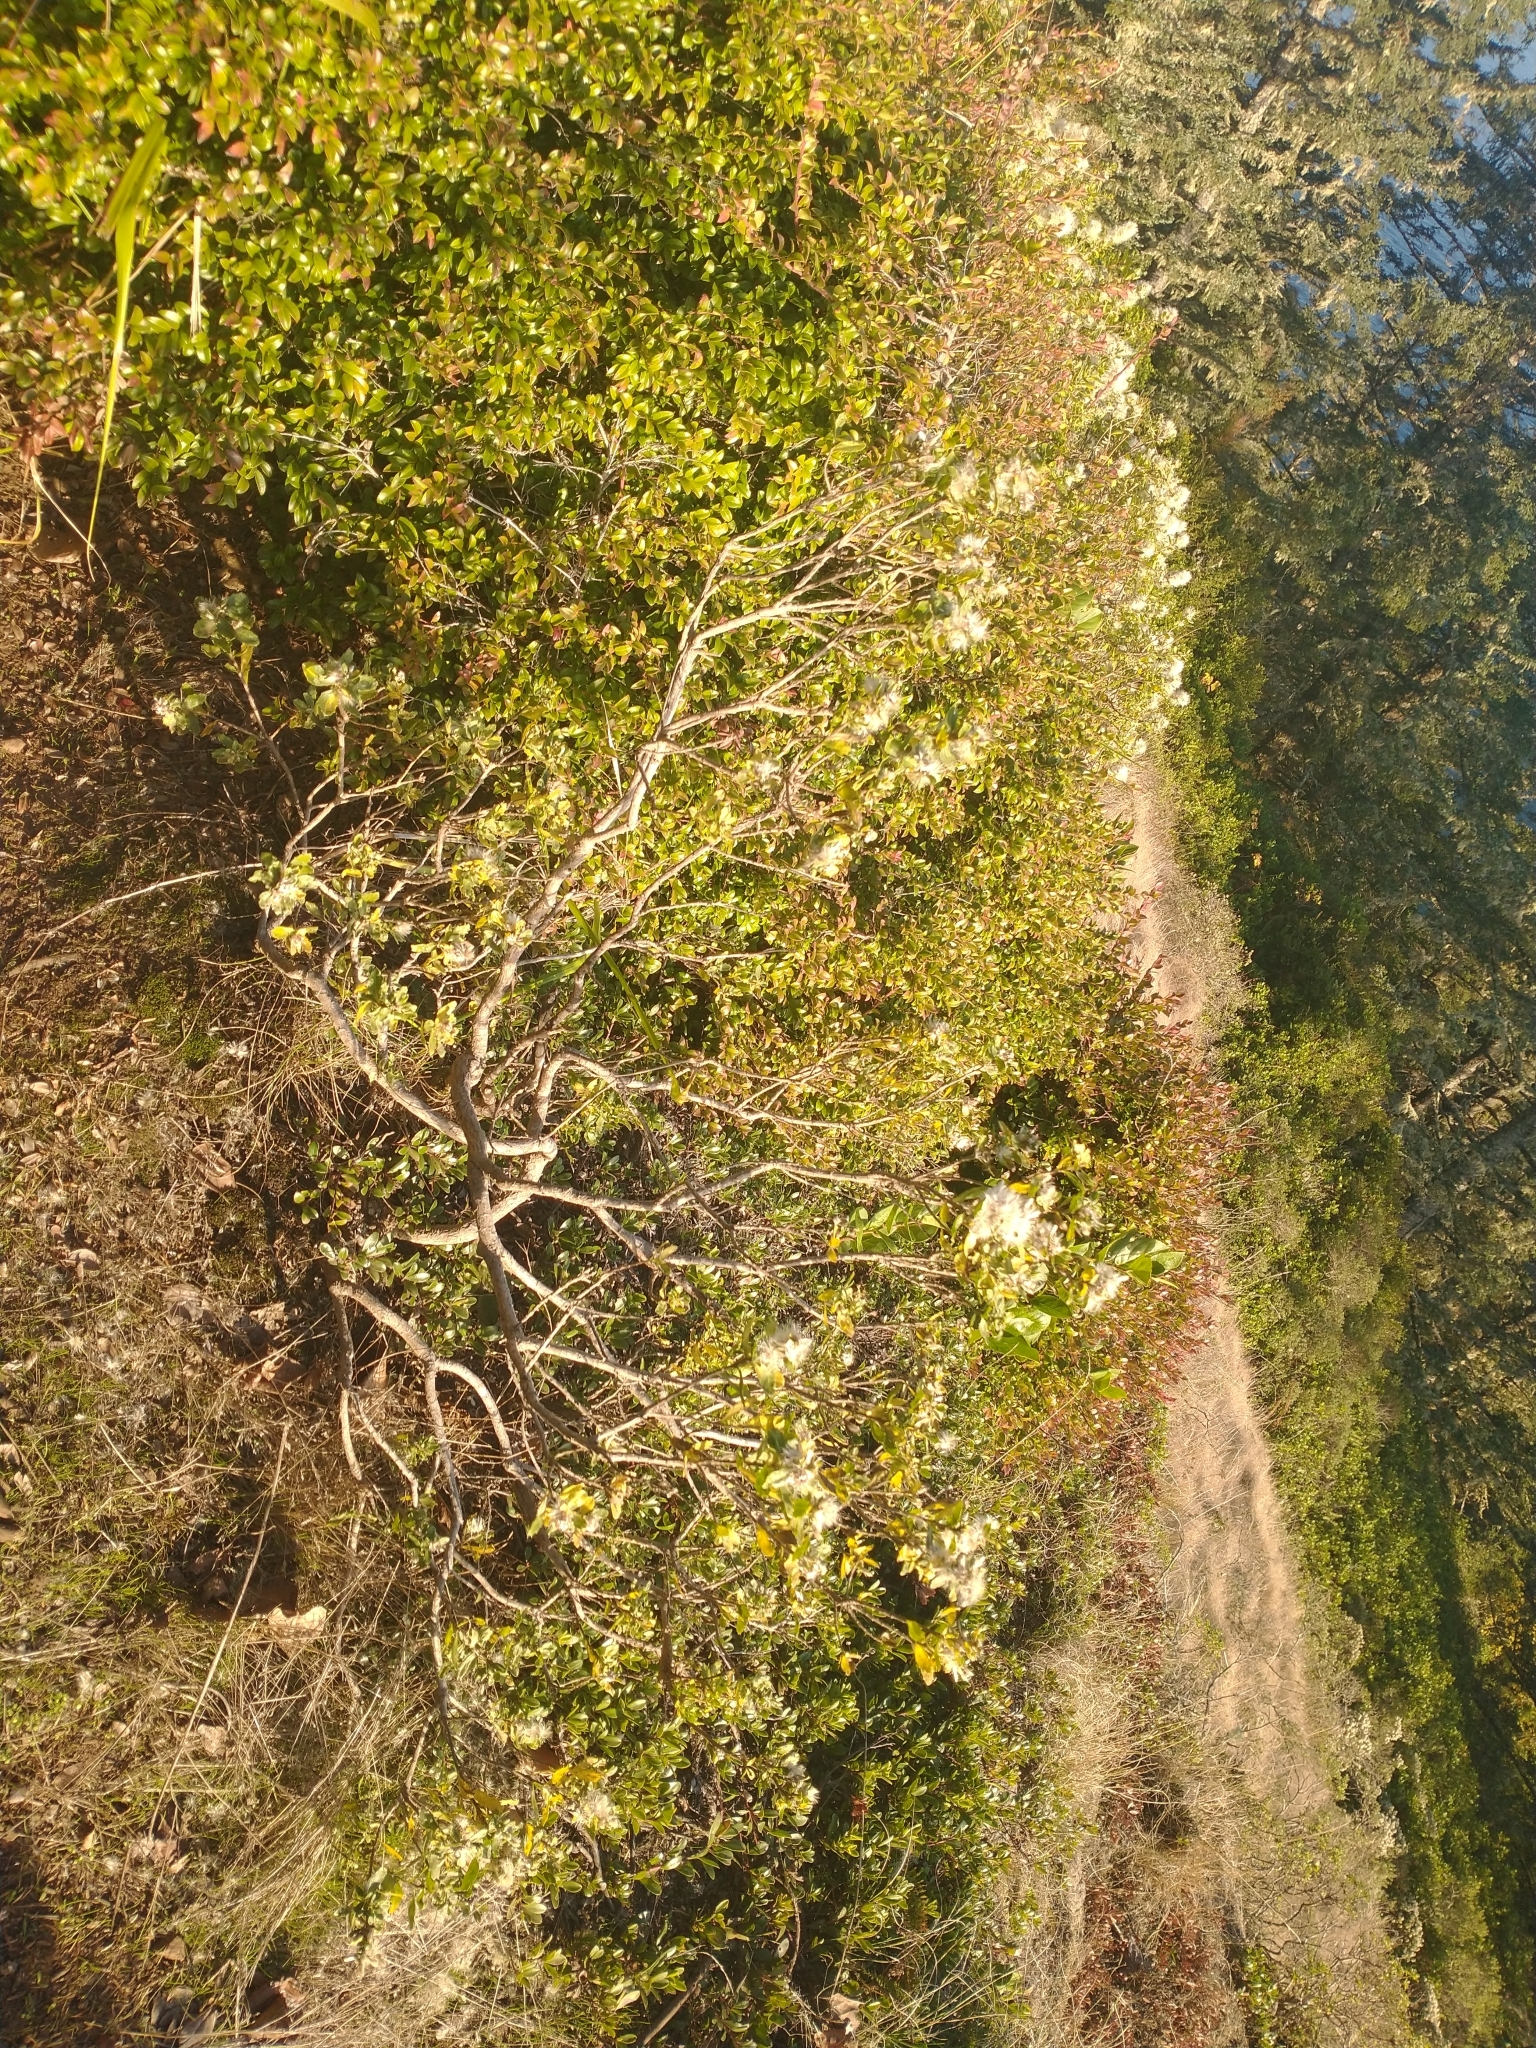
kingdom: Plantae
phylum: Tracheophyta
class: Magnoliopsida
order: Asterales
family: Asteraceae
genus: Baccharis
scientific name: Baccharis pilularis
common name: Coyotebrush
